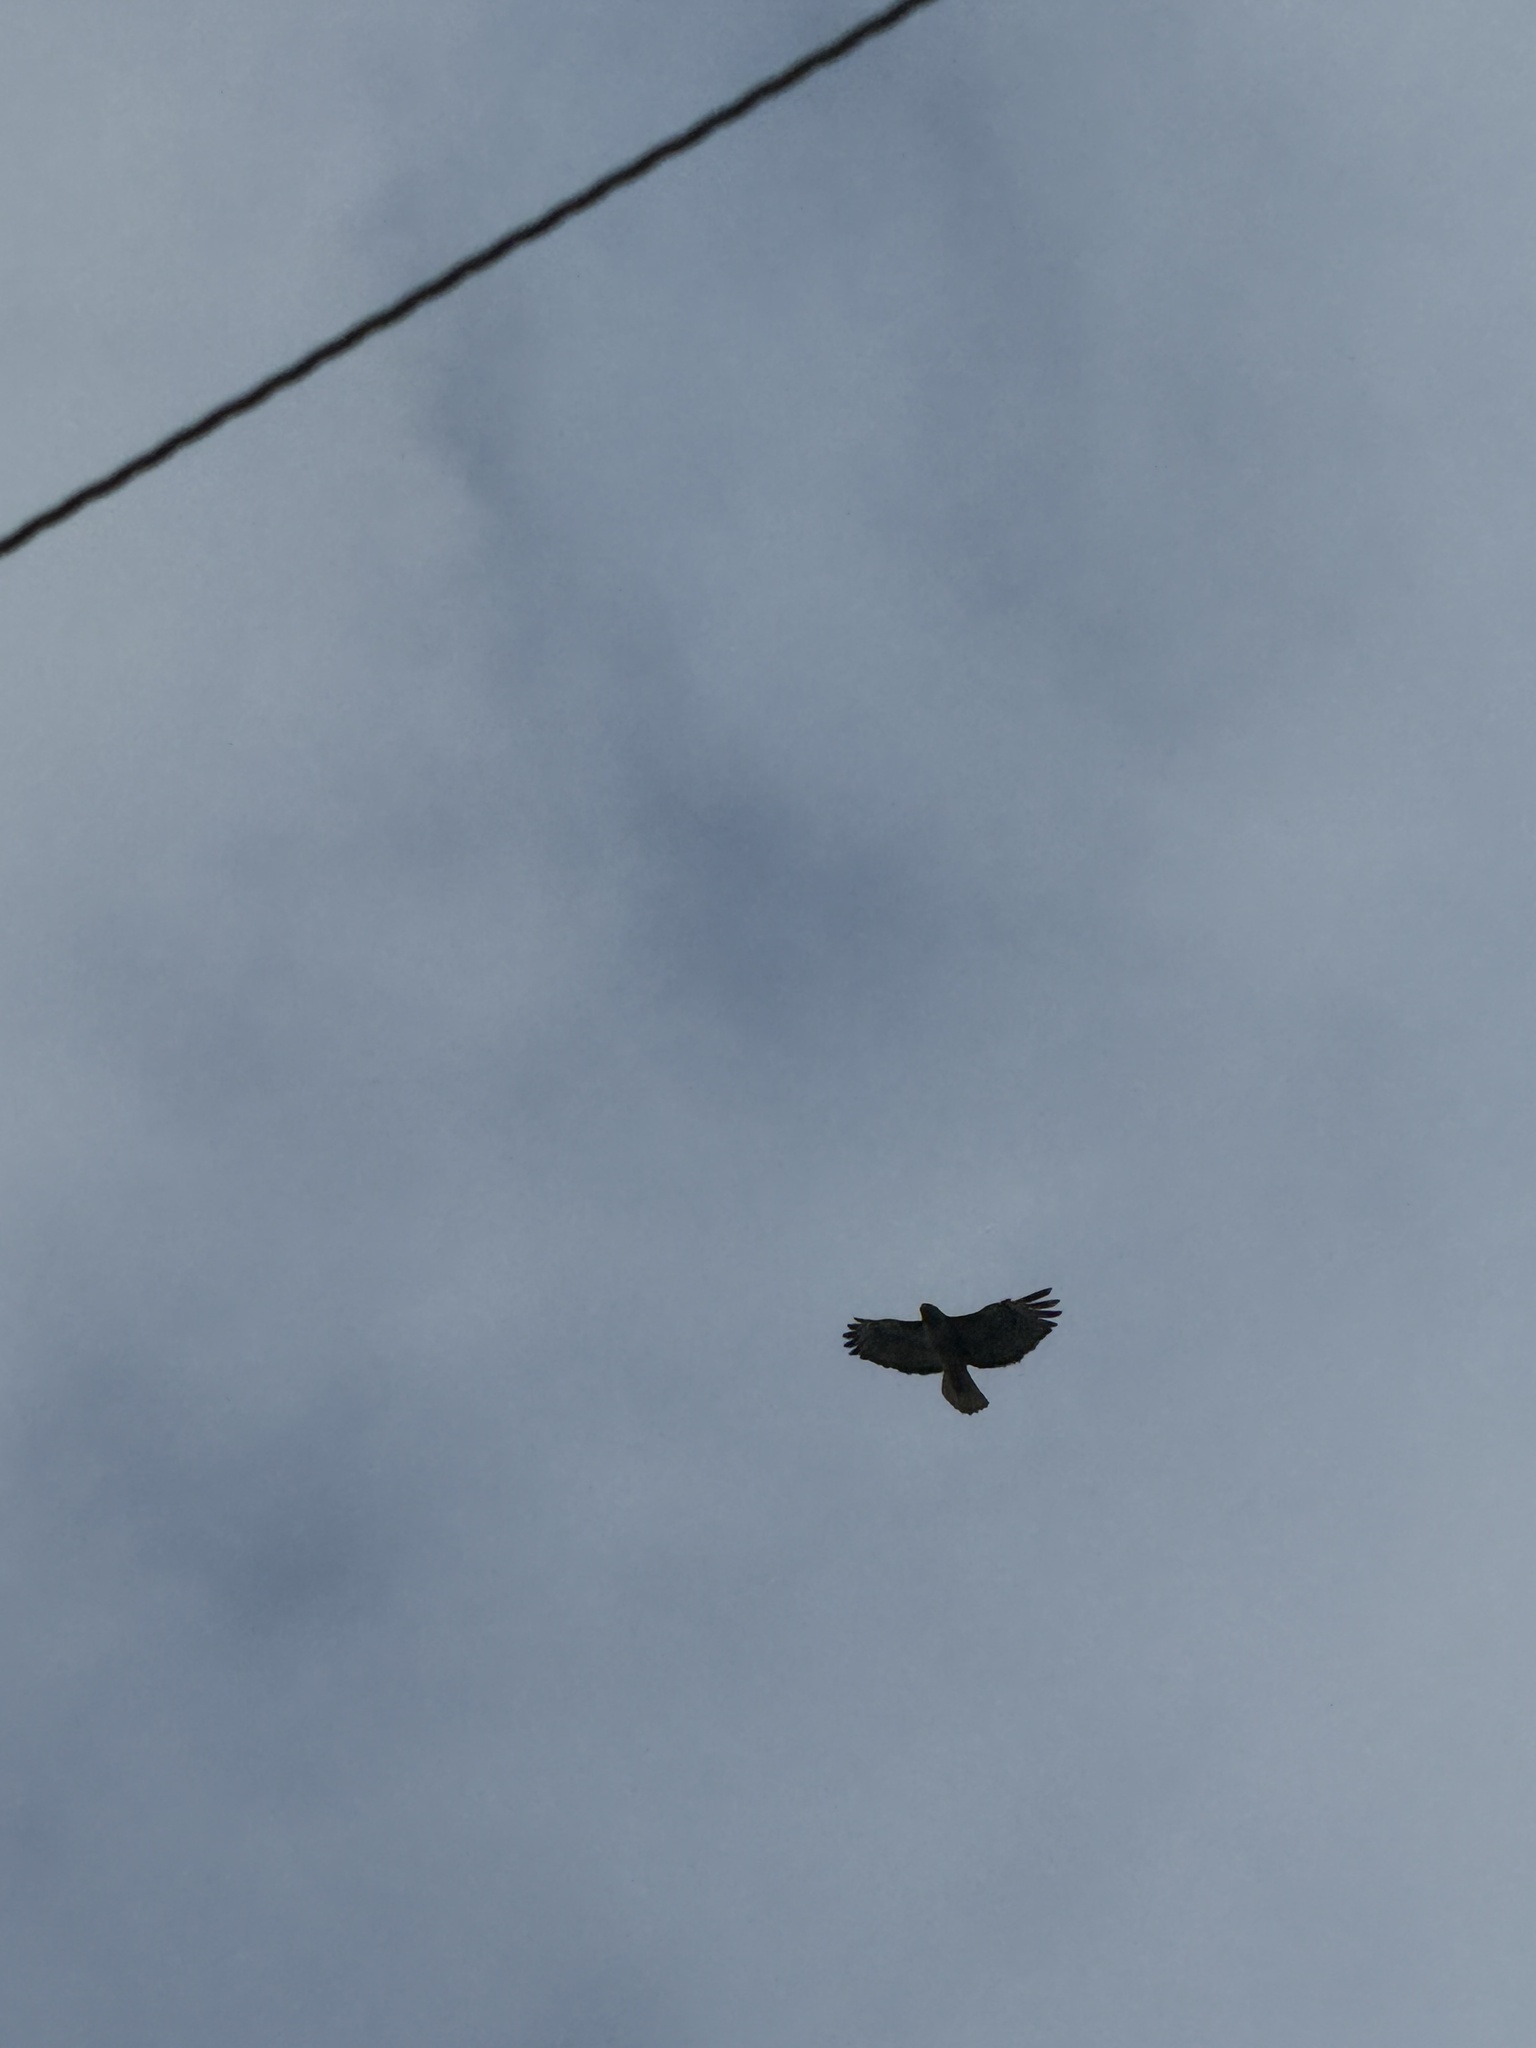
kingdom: Animalia
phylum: Chordata
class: Aves
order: Accipitriformes
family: Accipitridae
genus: Buteo
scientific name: Buteo jamaicensis
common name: Red-tailed hawk
